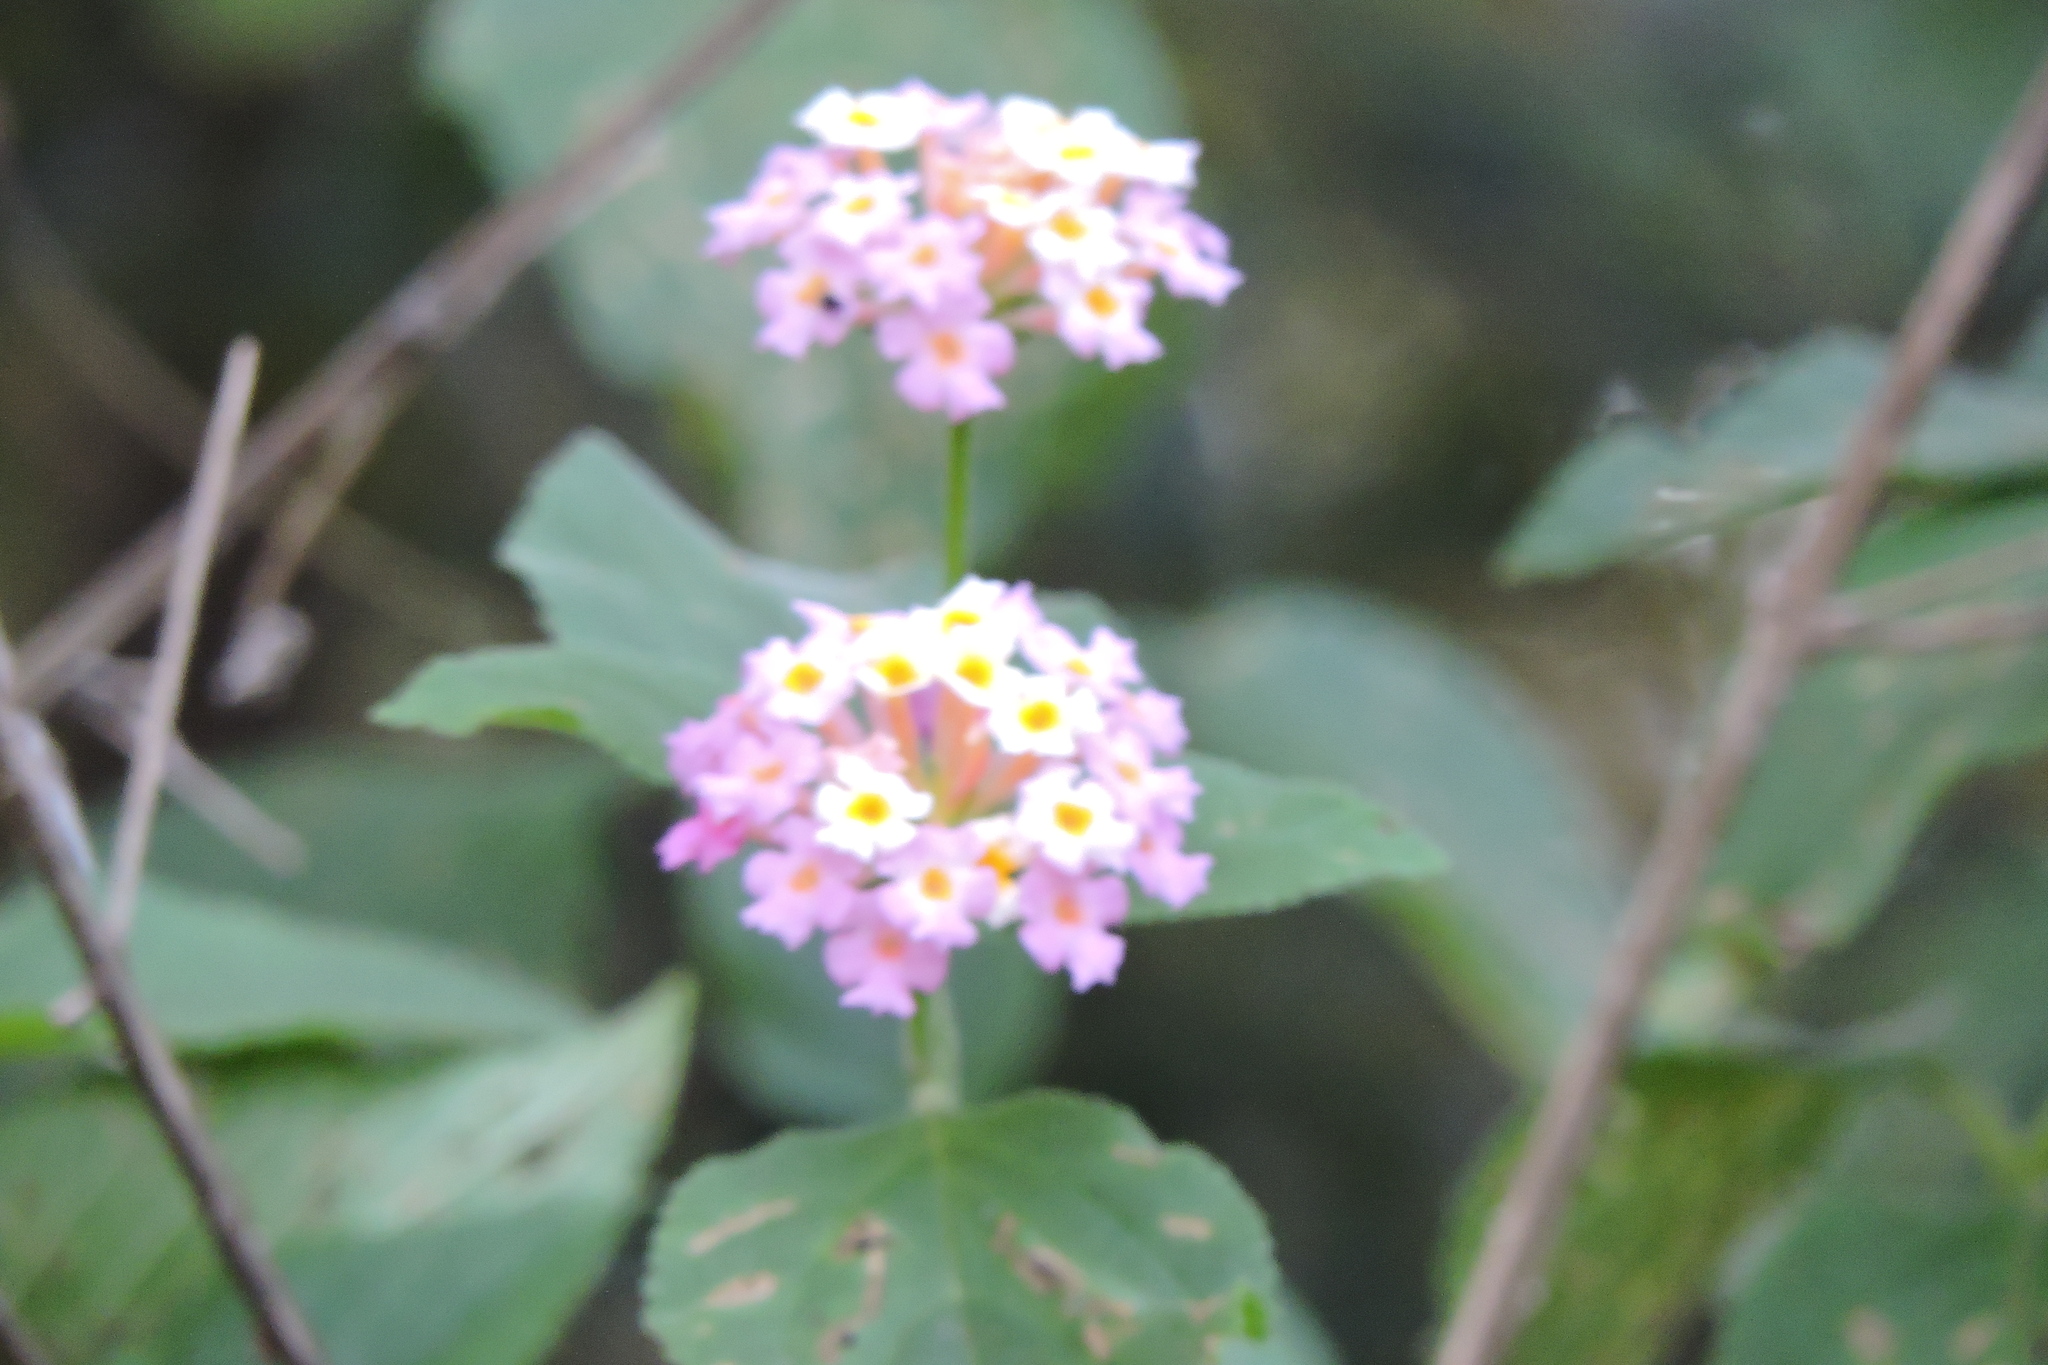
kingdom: Plantae
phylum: Tracheophyta
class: Magnoliopsida
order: Lamiales
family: Verbenaceae
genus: Lantana
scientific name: Lantana camara
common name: Lantana
